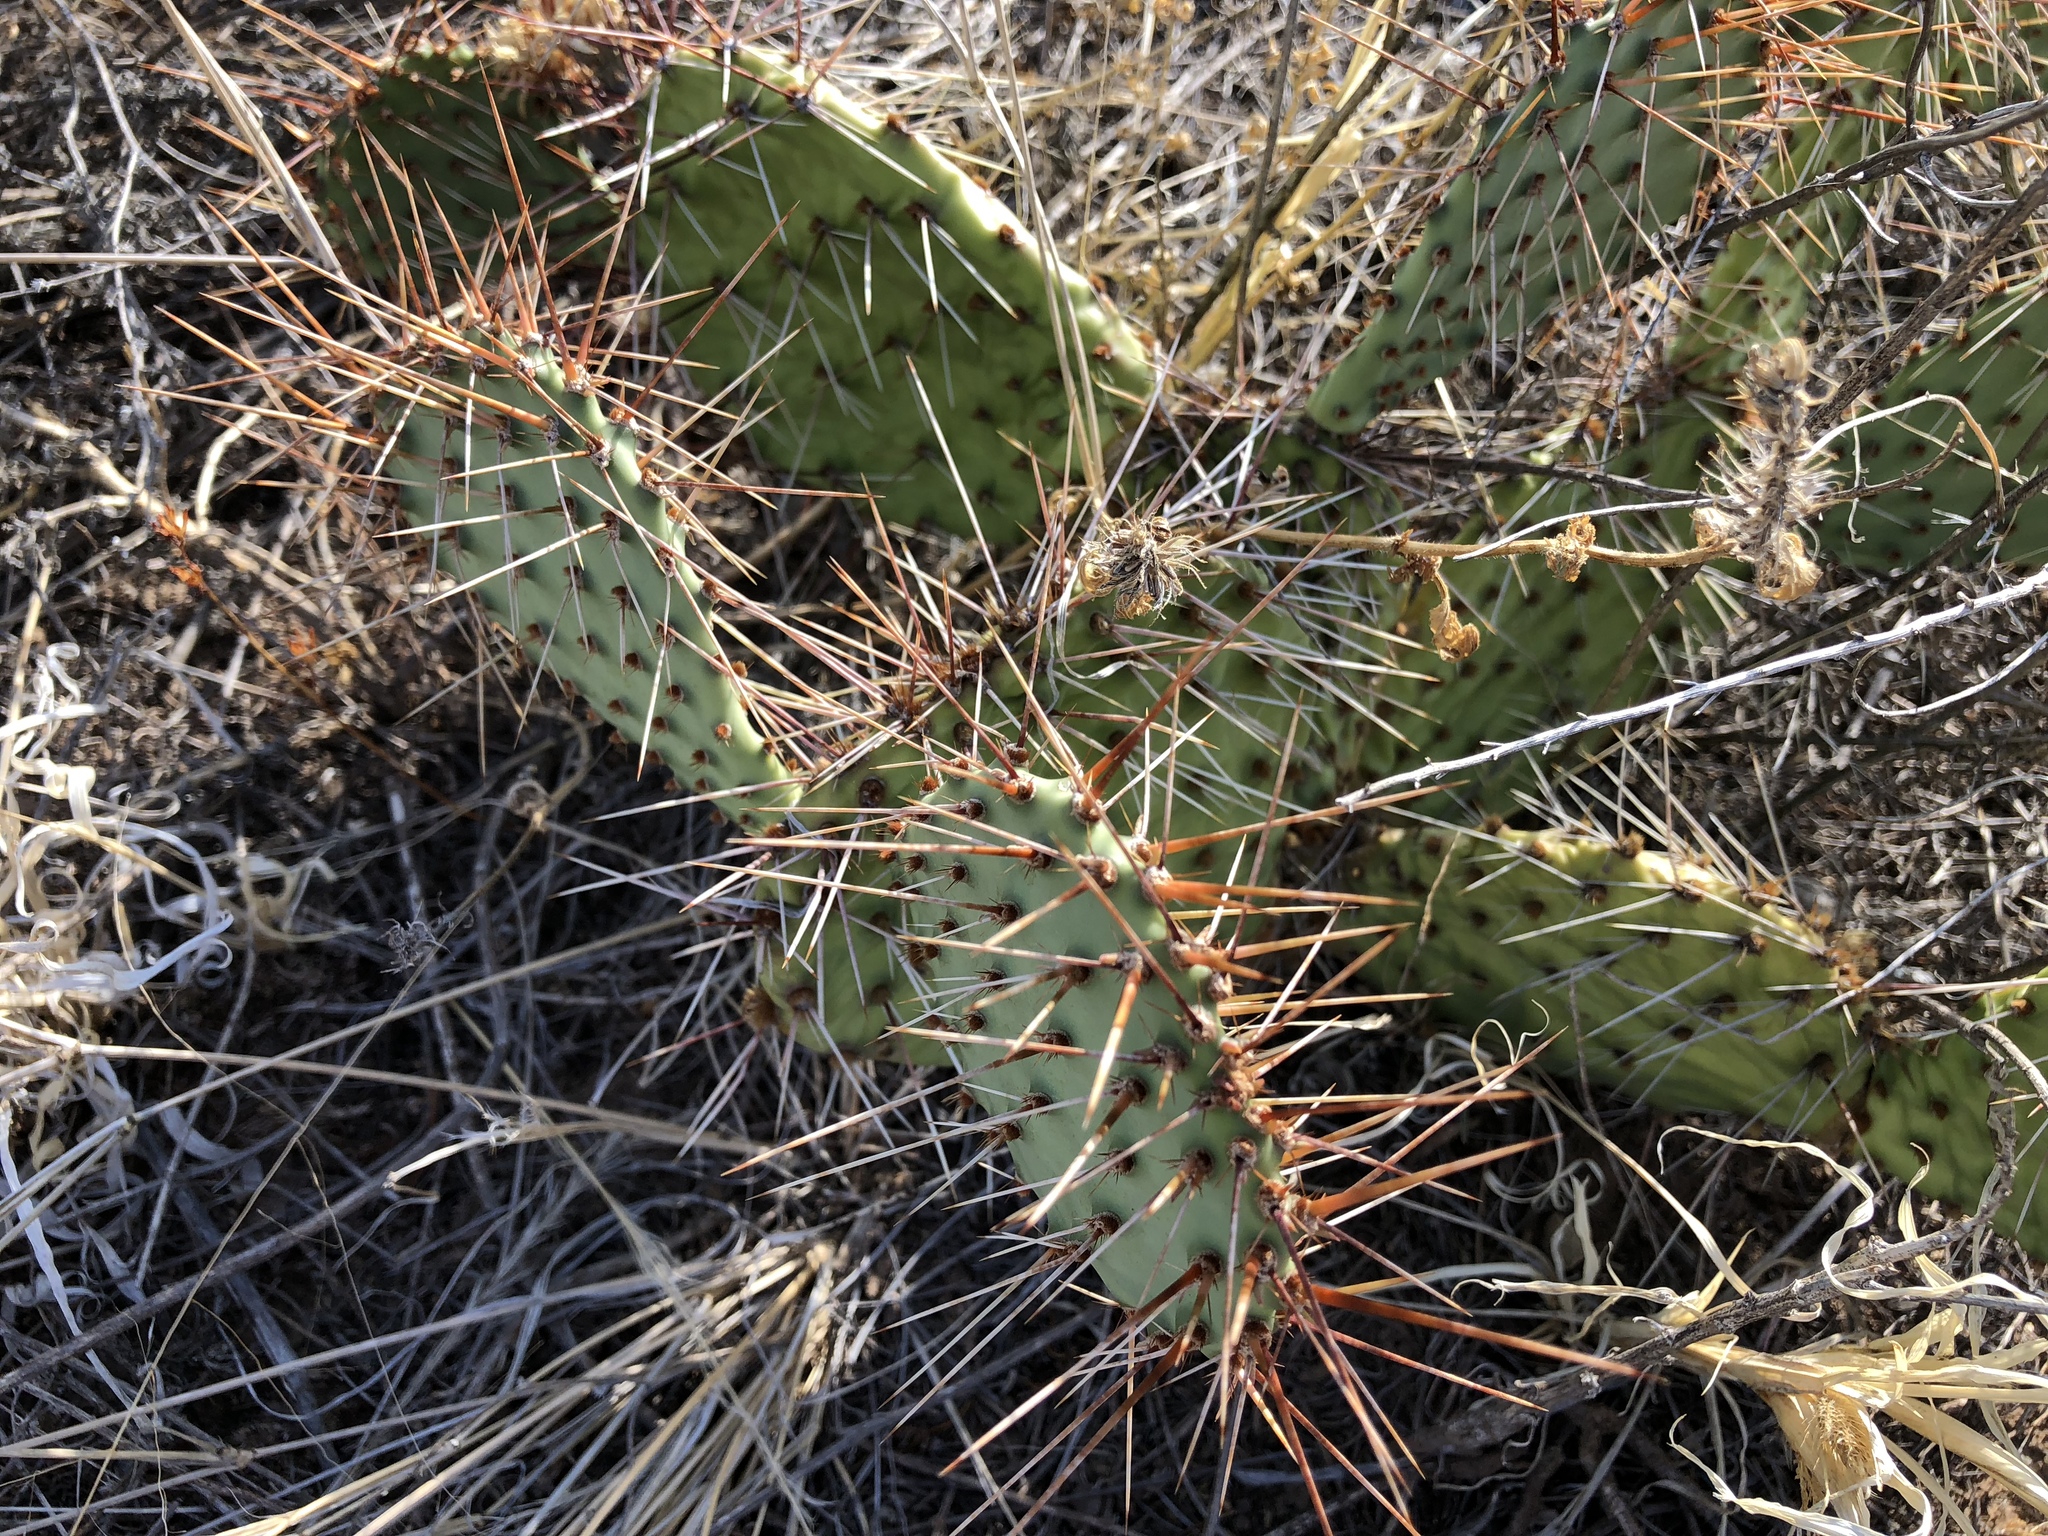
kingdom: Plantae
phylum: Tracheophyta
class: Magnoliopsida
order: Caryophyllales
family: Cactaceae
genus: Opuntia
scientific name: Opuntia macrorhiza
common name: Grassland pricklypear
